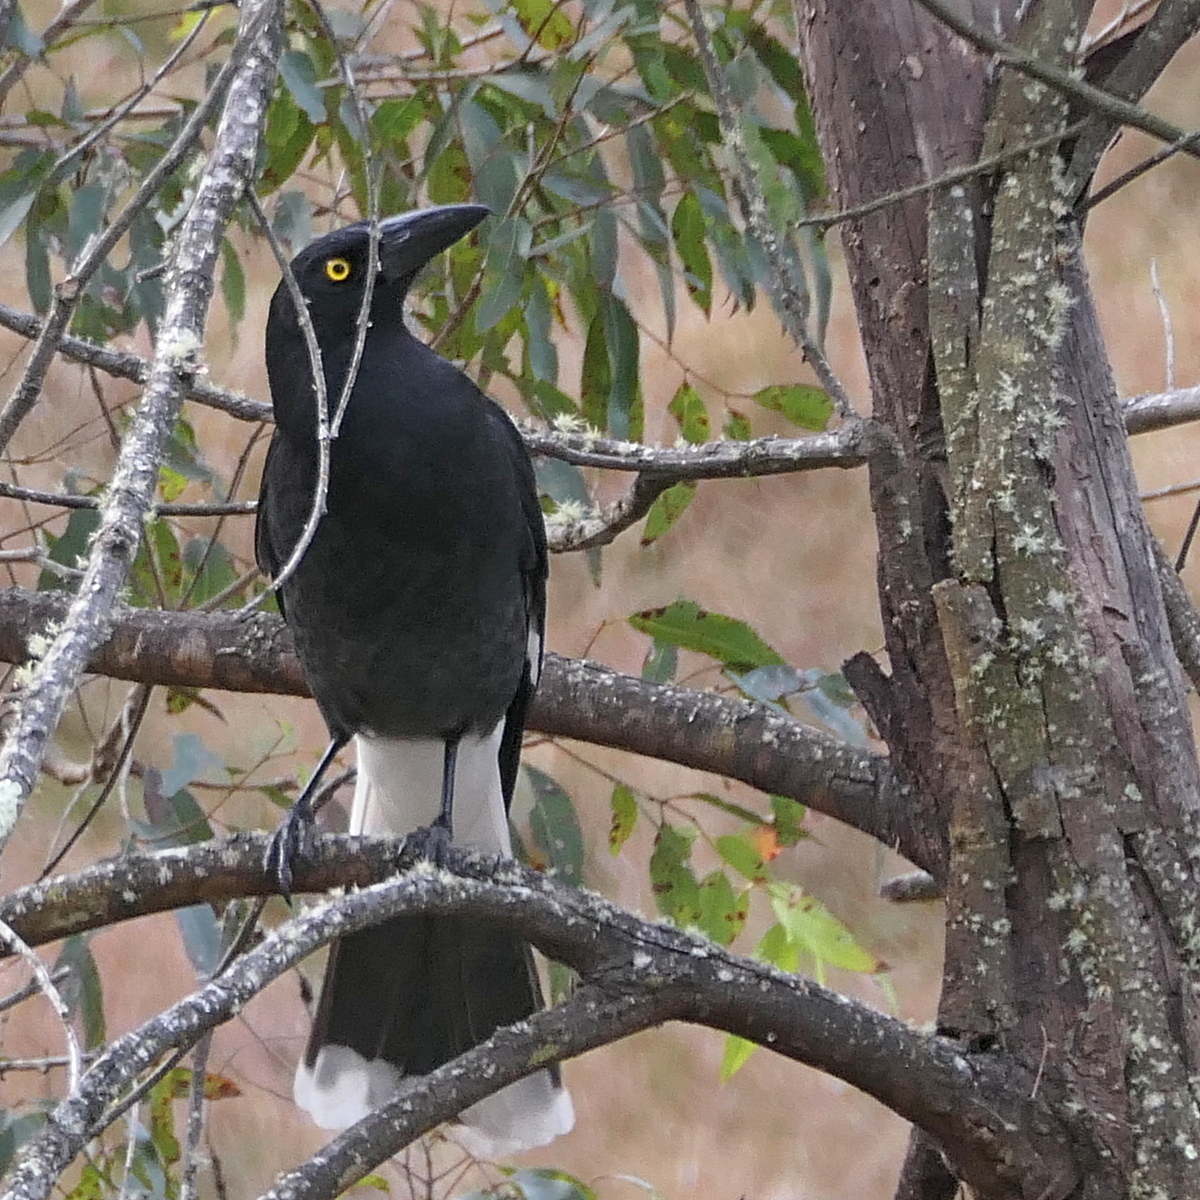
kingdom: Animalia
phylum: Chordata
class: Aves
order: Passeriformes
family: Cracticidae
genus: Strepera
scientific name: Strepera graculina
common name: Pied currawong
